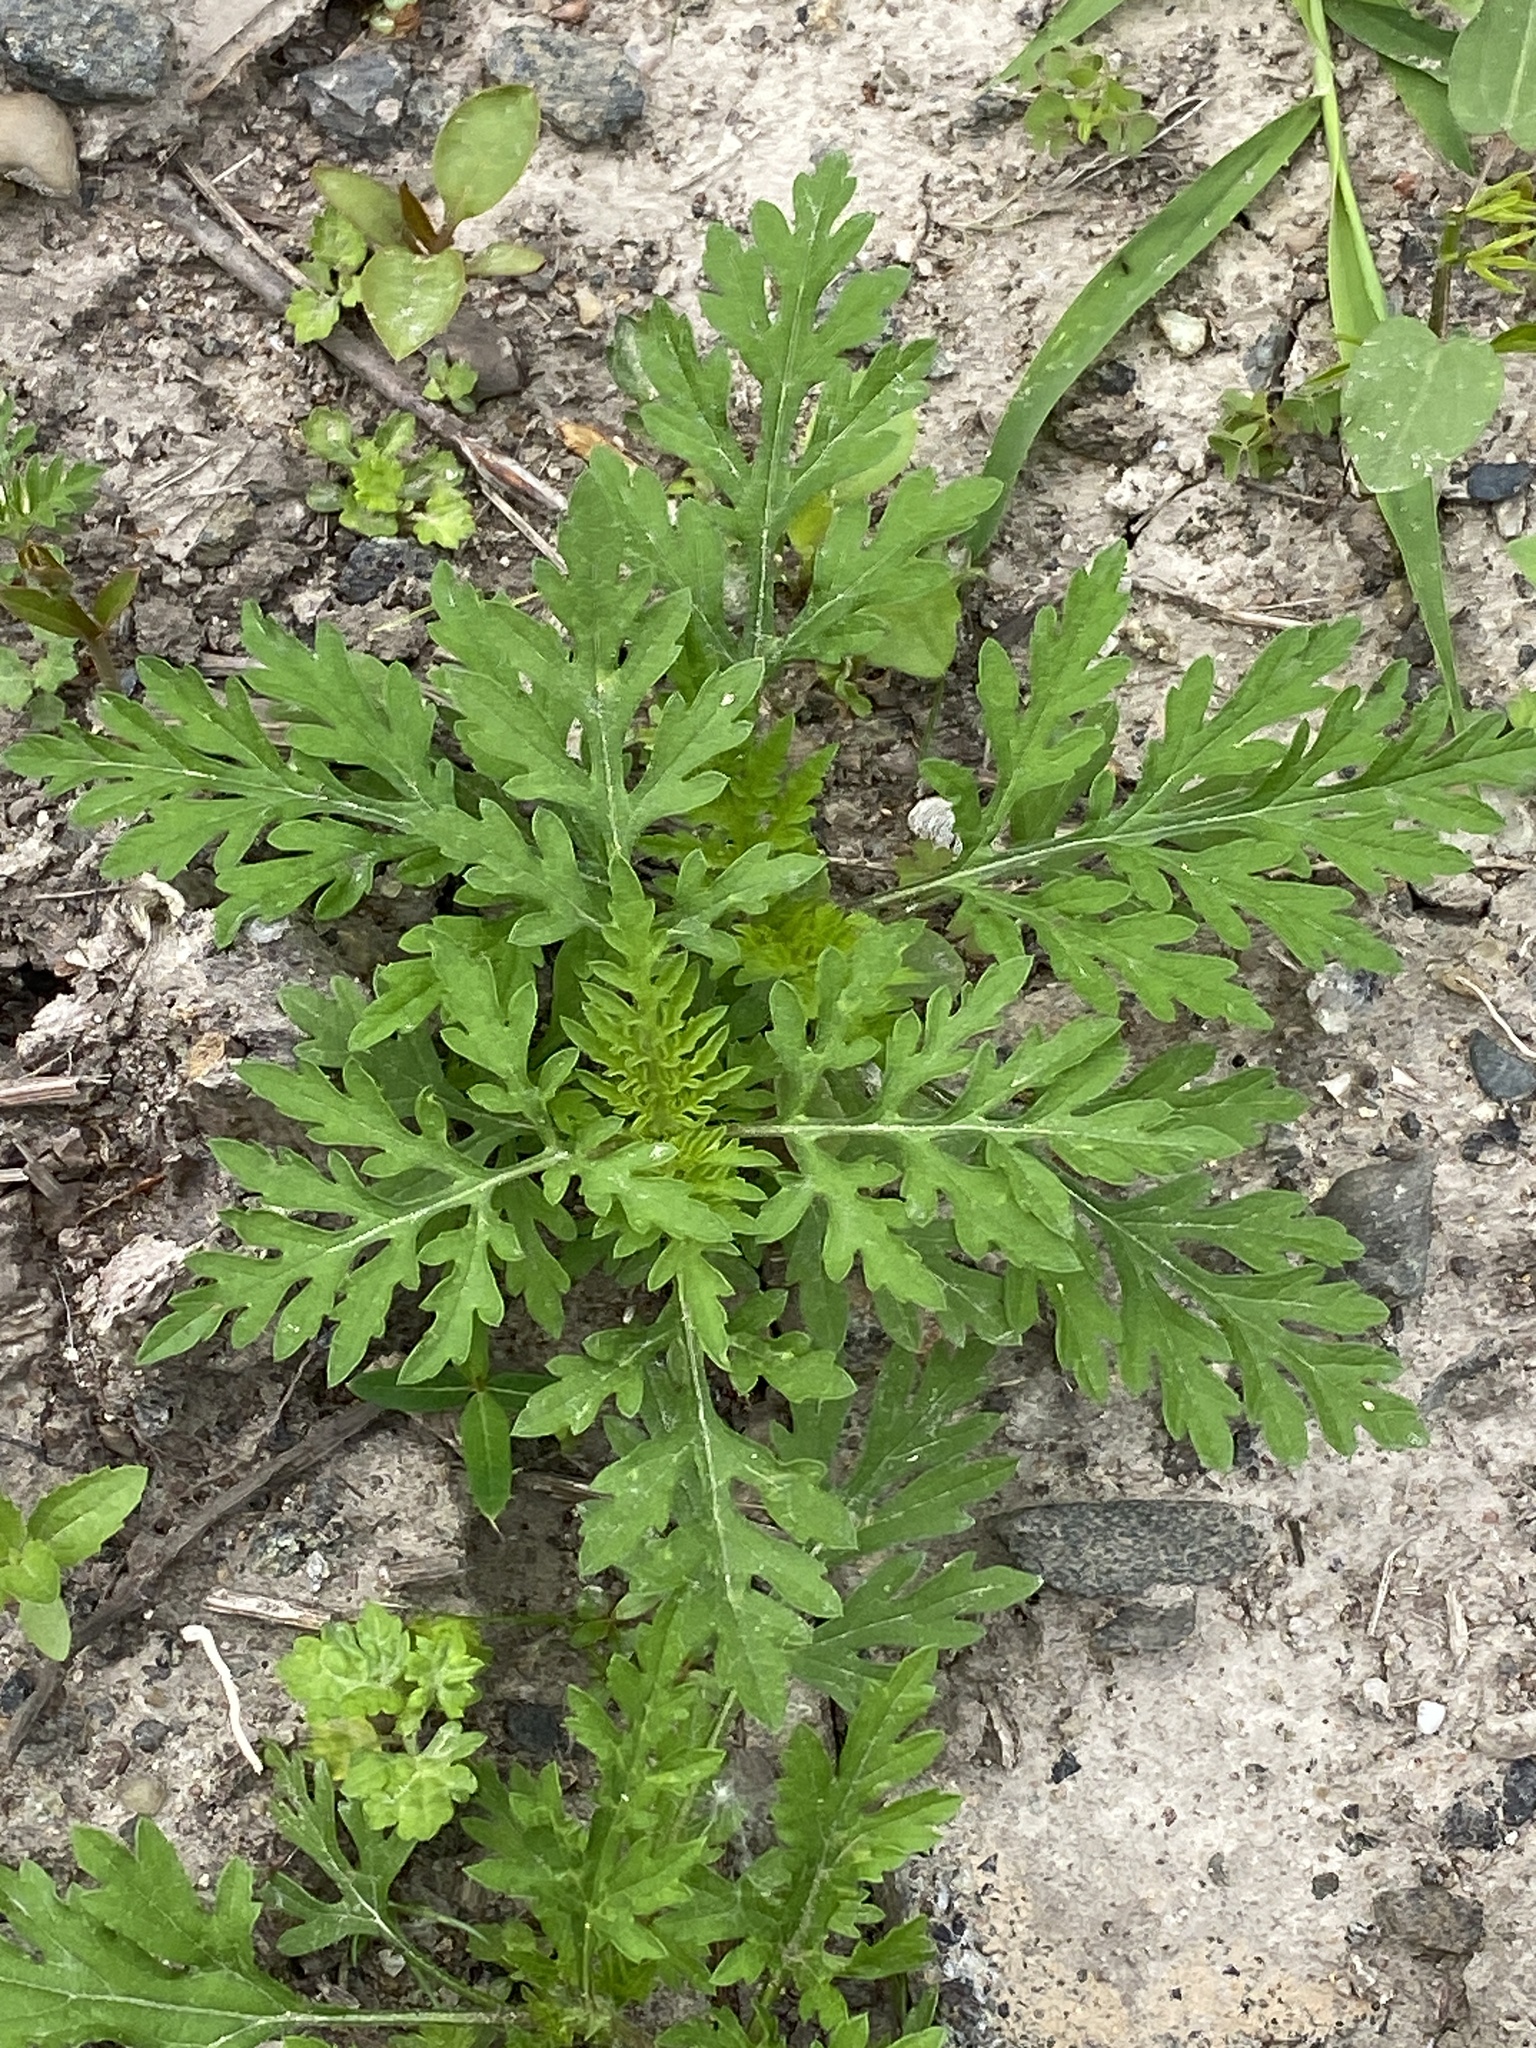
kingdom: Plantae
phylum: Tracheophyta
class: Magnoliopsida
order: Asterales
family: Asteraceae
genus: Ambrosia
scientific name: Ambrosia artemisiifolia
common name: Annual ragweed
